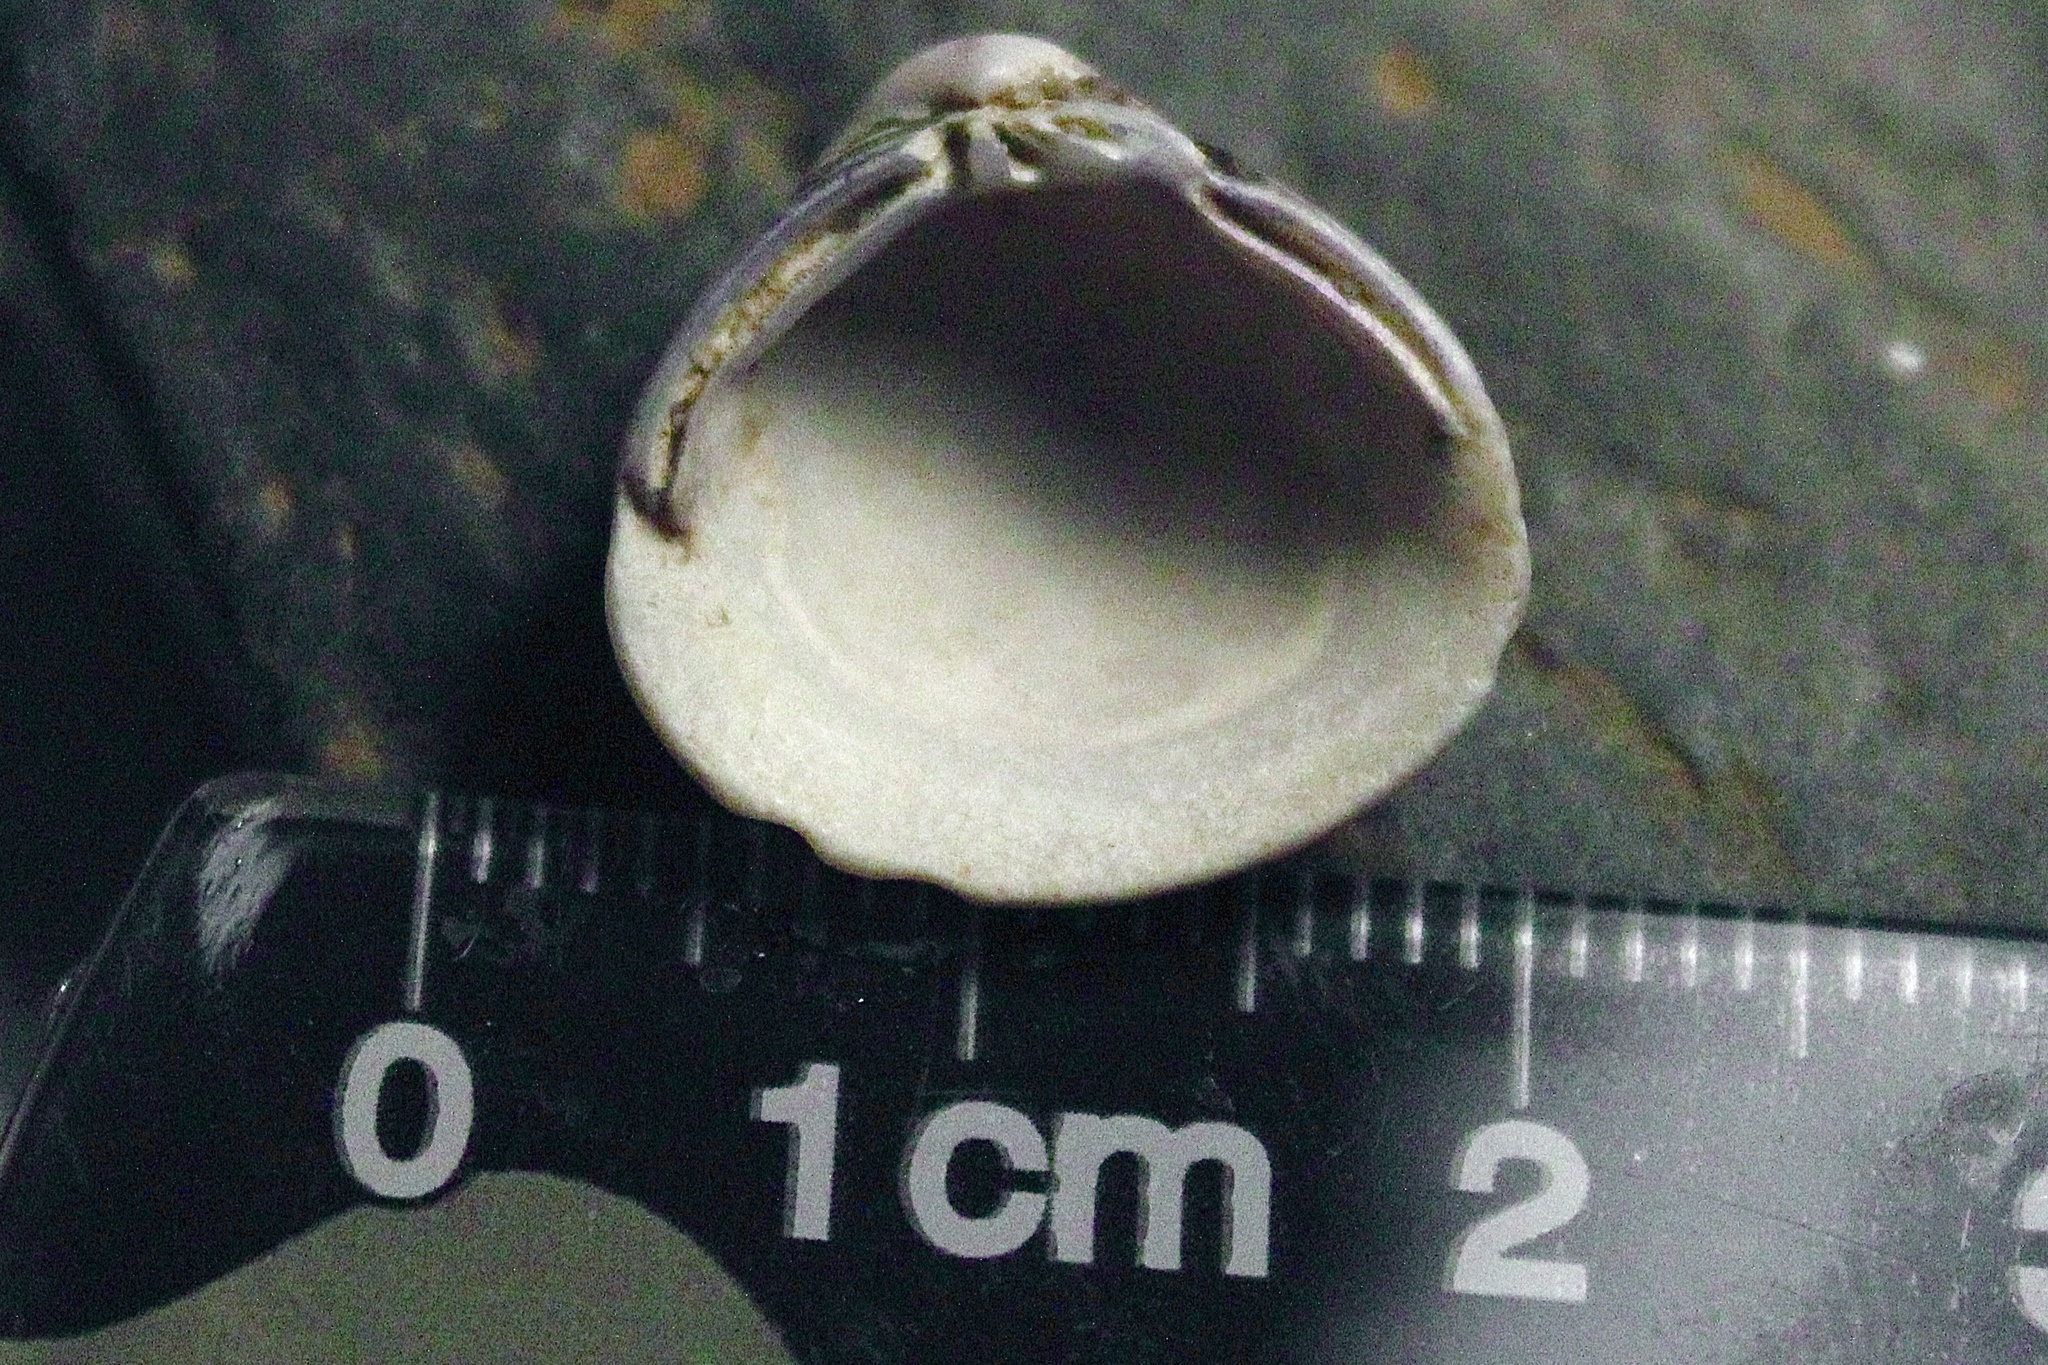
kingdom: Animalia
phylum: Mollusca
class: Bivalvia
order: Venerida
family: Cyrenidae
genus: Corbicula
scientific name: Corbicula
